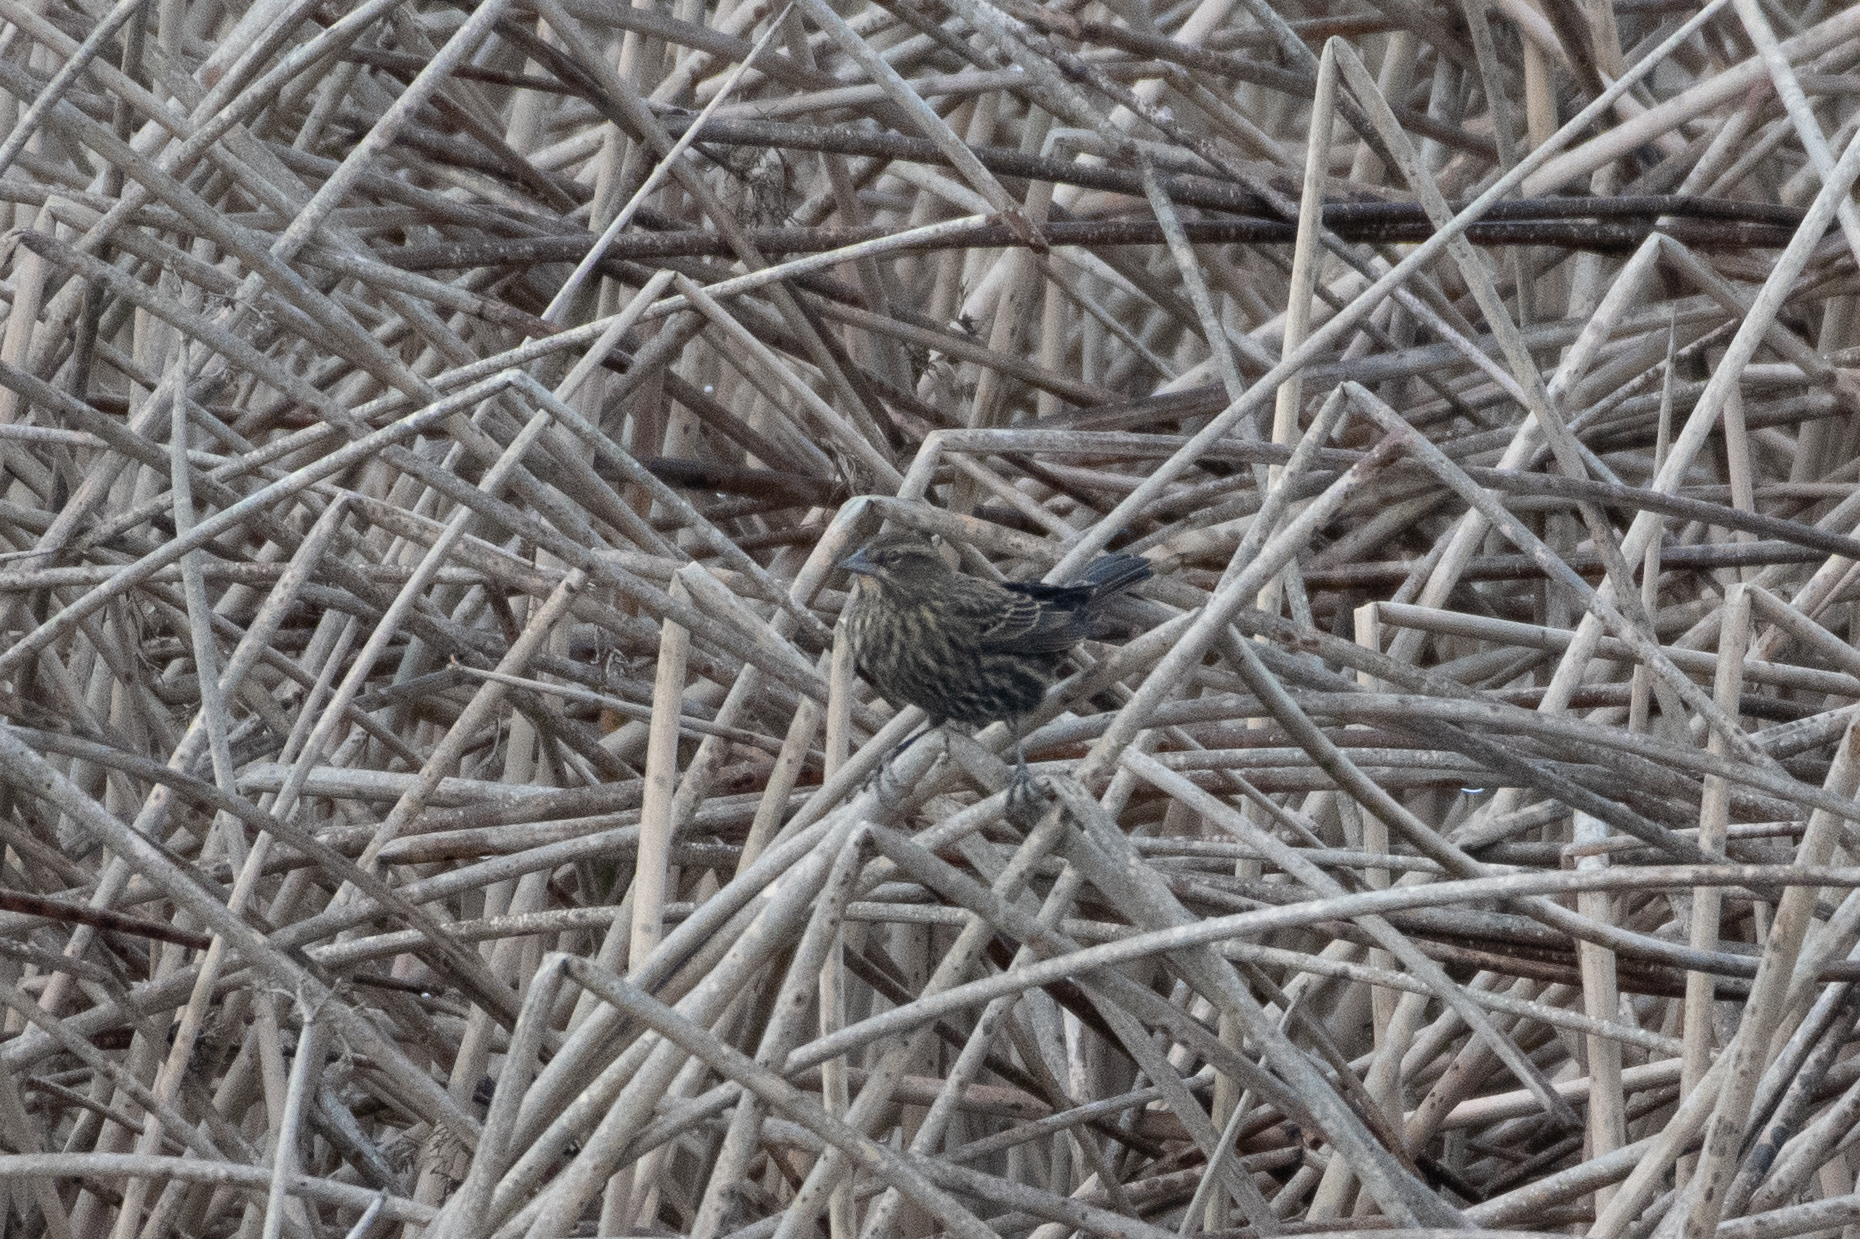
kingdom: Animalia
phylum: Chordata
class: Aves
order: Passeriformes
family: Icteridae
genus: Agelaius
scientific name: Agelaius phoeniceus
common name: Red-winged blackbird
